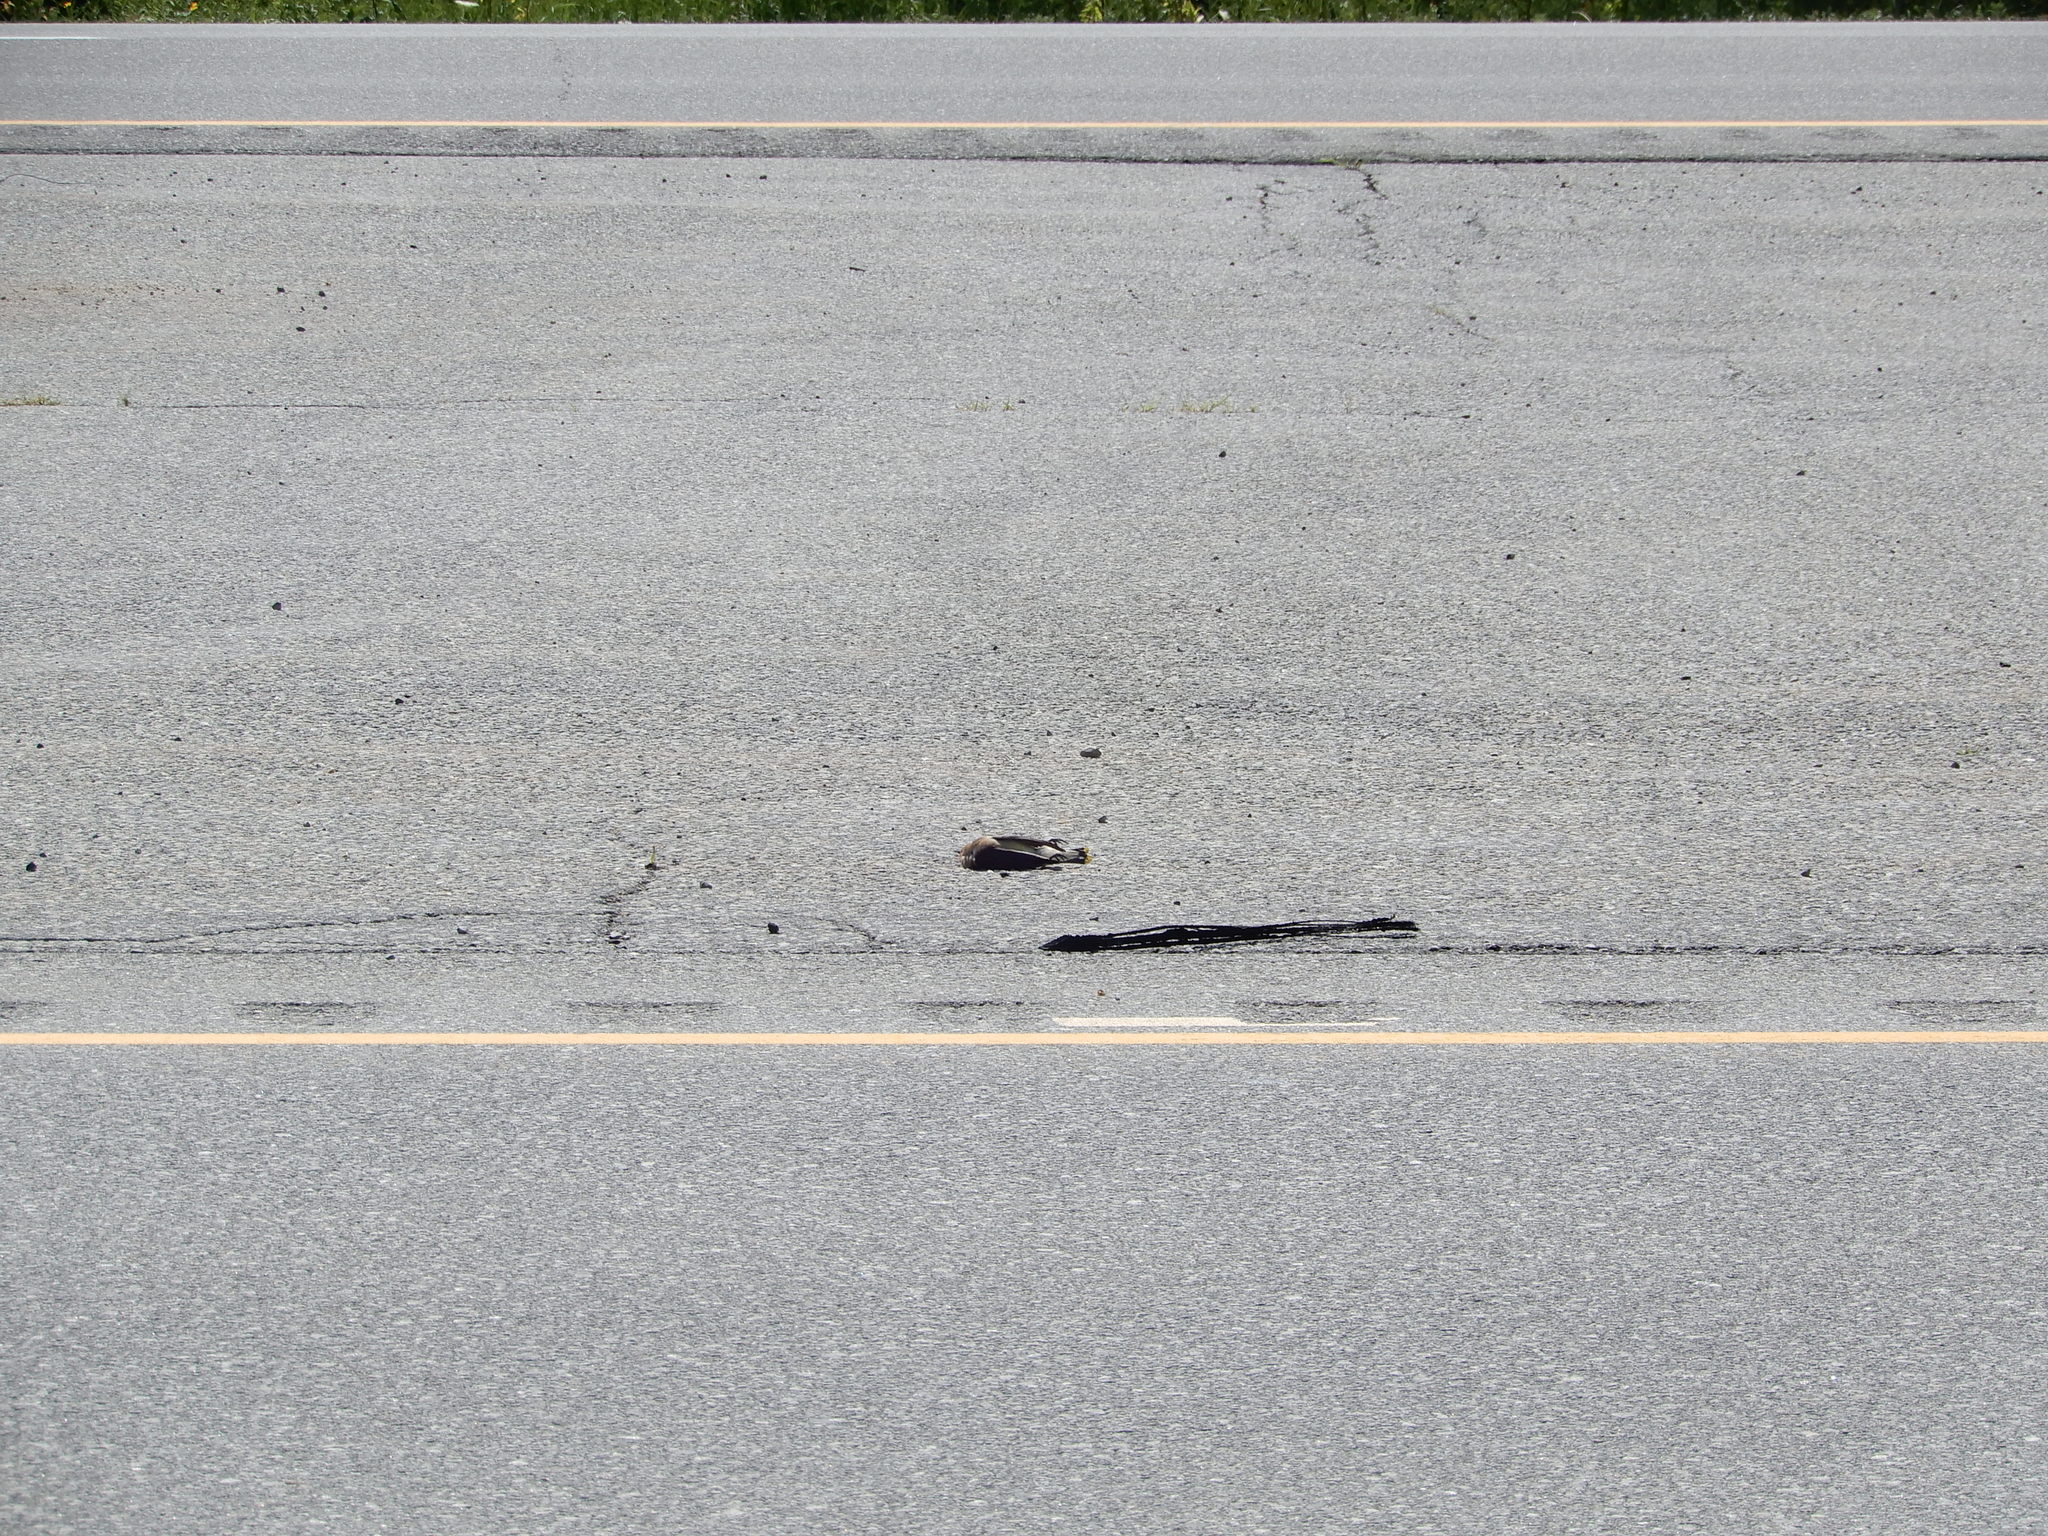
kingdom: Animalia
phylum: Chordata
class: Aves
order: Passeriformes
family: Bombycillidae
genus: Bombycilla
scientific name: Bombycilla cedrorum
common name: Cedar waxwing
